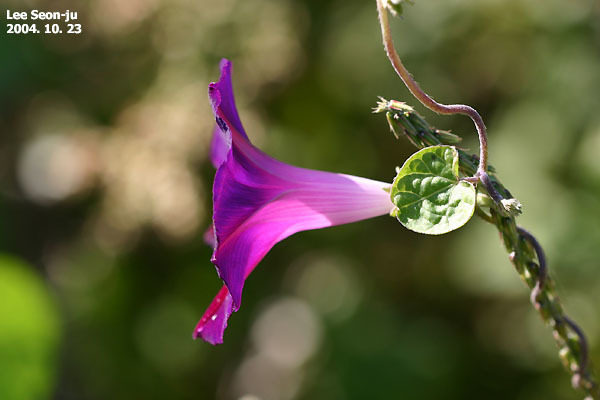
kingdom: Plantae
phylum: Tracheophyta
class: Magnoliopsida
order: Solanales
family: Convolvulaceae
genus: Ipomoea
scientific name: Ipomoea purpurea
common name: Common morning-glory
